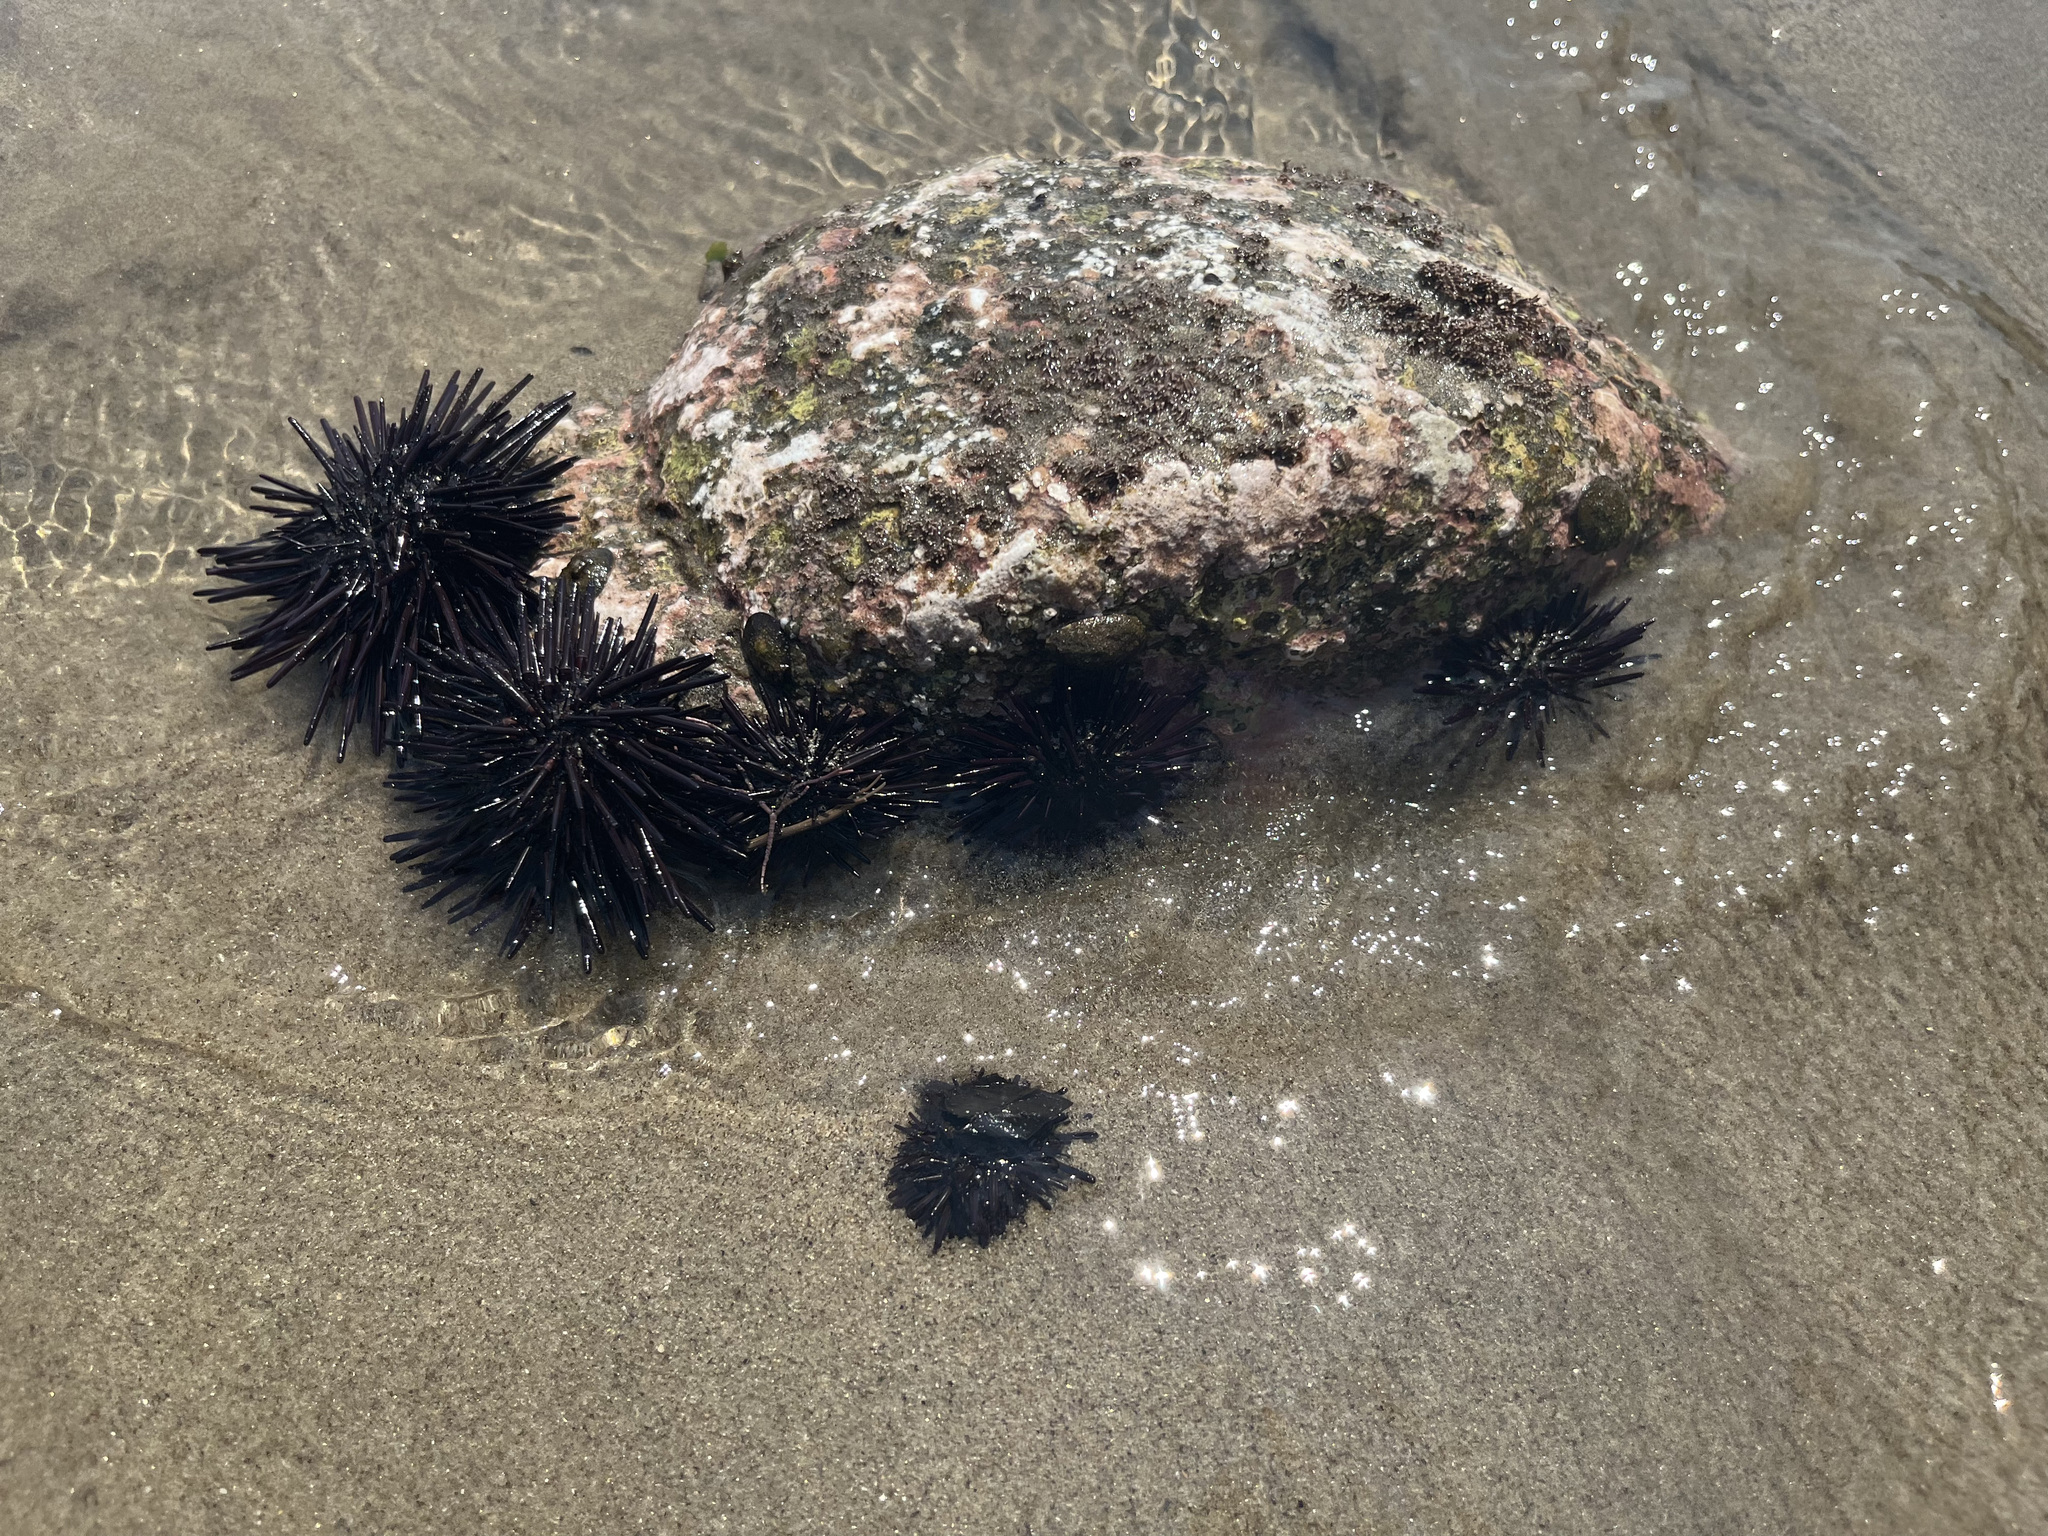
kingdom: Animalia
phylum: Echinodermata
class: Echinoidea
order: Camarodonta
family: Echinometridae
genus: Echinometra
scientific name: Echinometra vanbrunti
